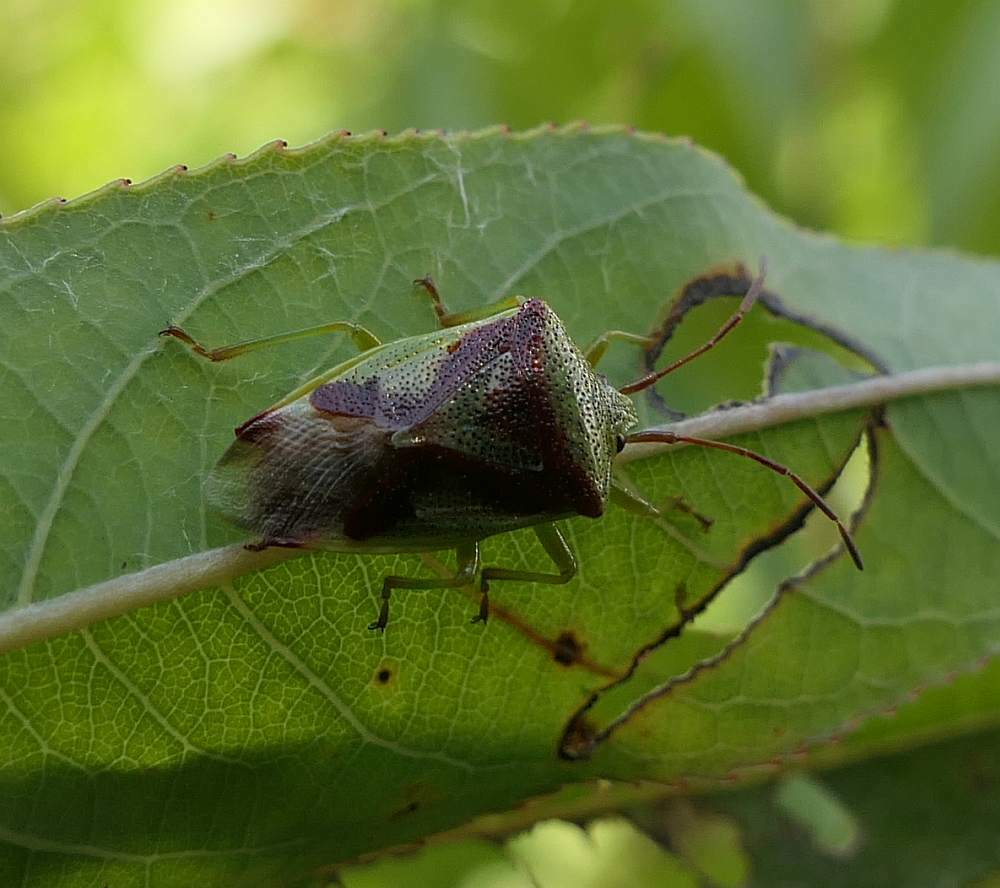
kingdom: Animalia
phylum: Arthropoda
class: Insecta
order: Hemiptera
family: Acanthosomatidae
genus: Elasmostethus
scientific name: Elasmostethus cruciatus
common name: Red-cross shield bug
